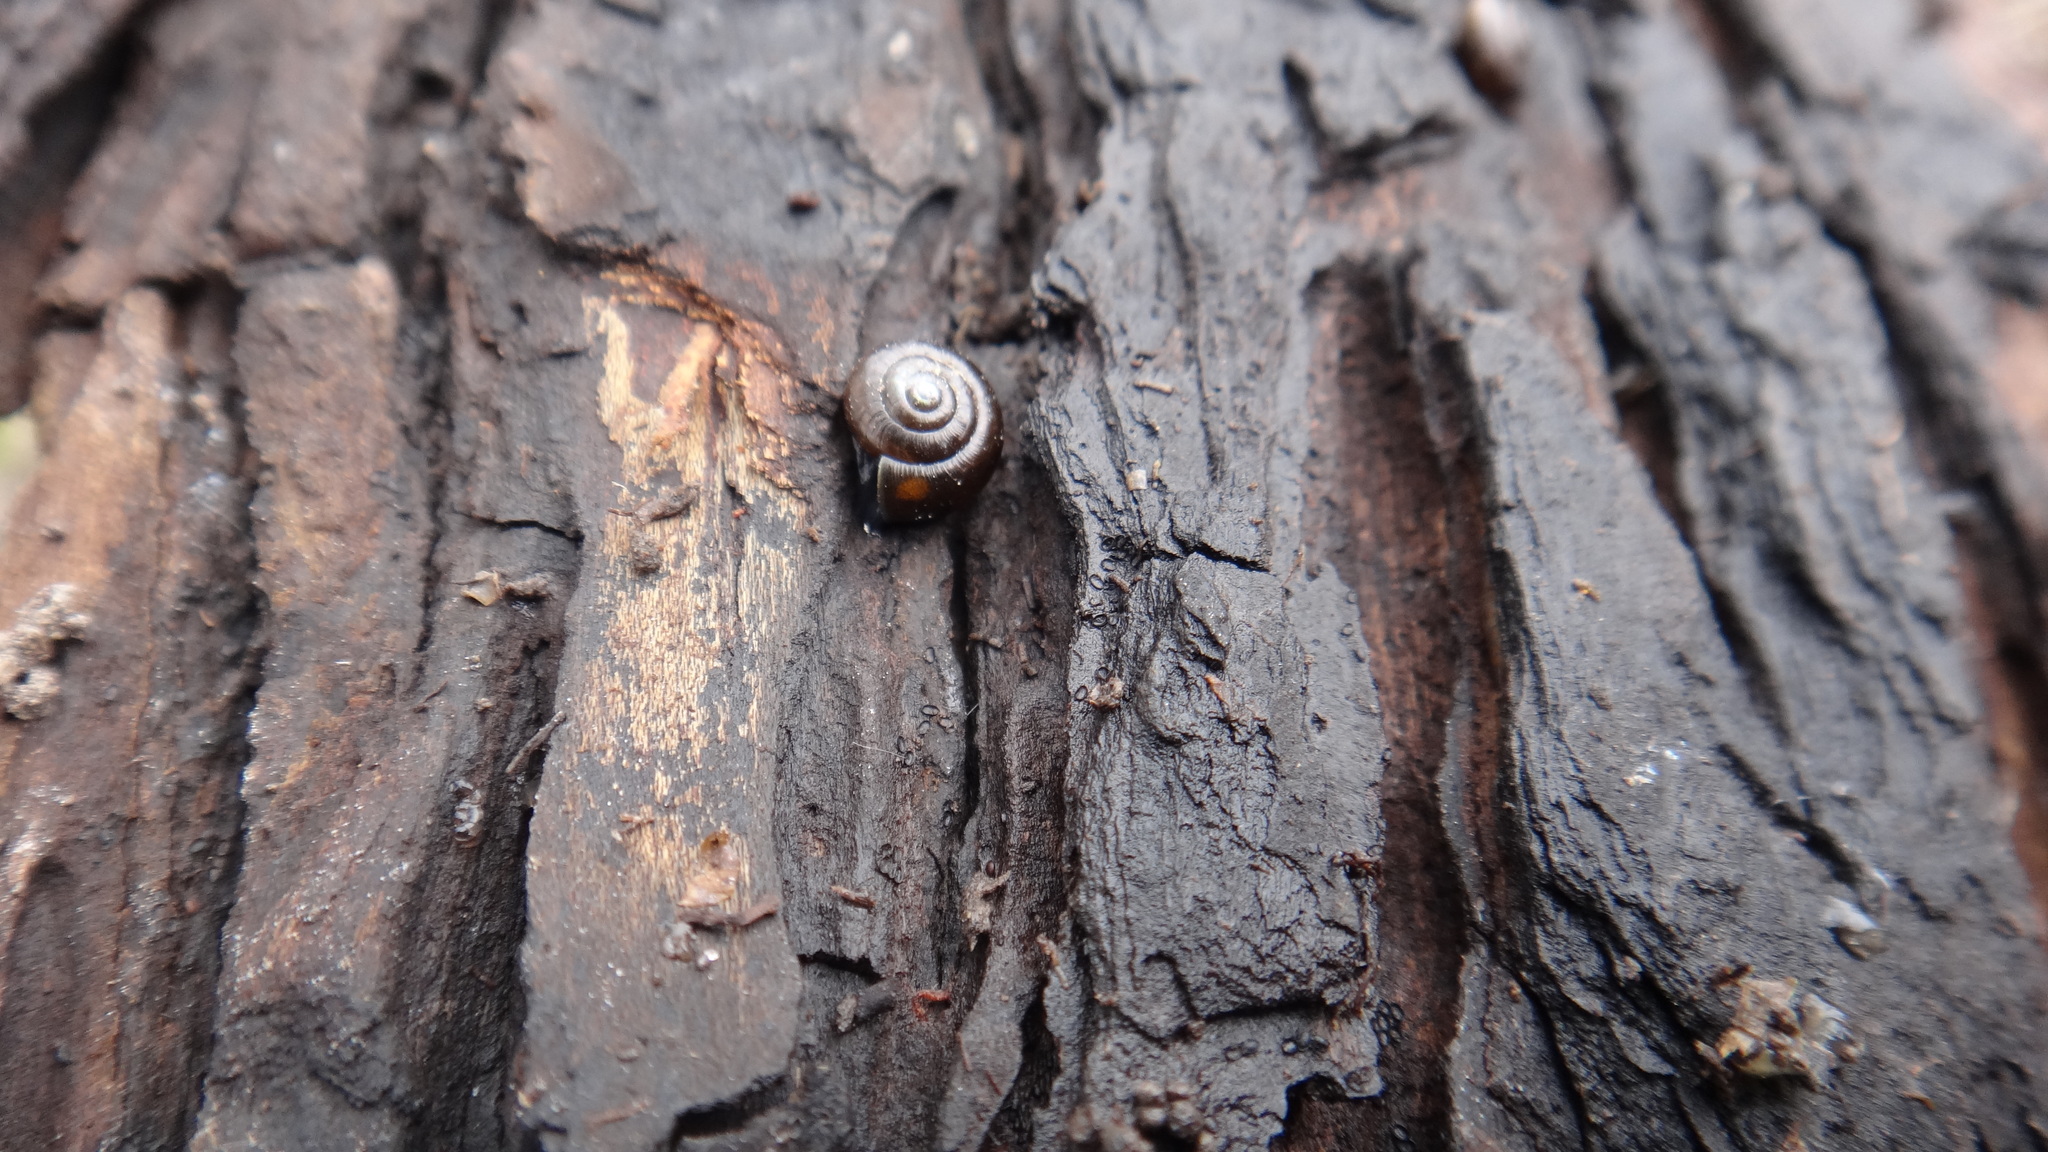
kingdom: Animalia
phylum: Mollusca
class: Gastropoda
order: Stylommatophora
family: Gastrodontidae
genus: Zonitoides
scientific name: Zonitoides nitidus
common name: Shiny glass snail
